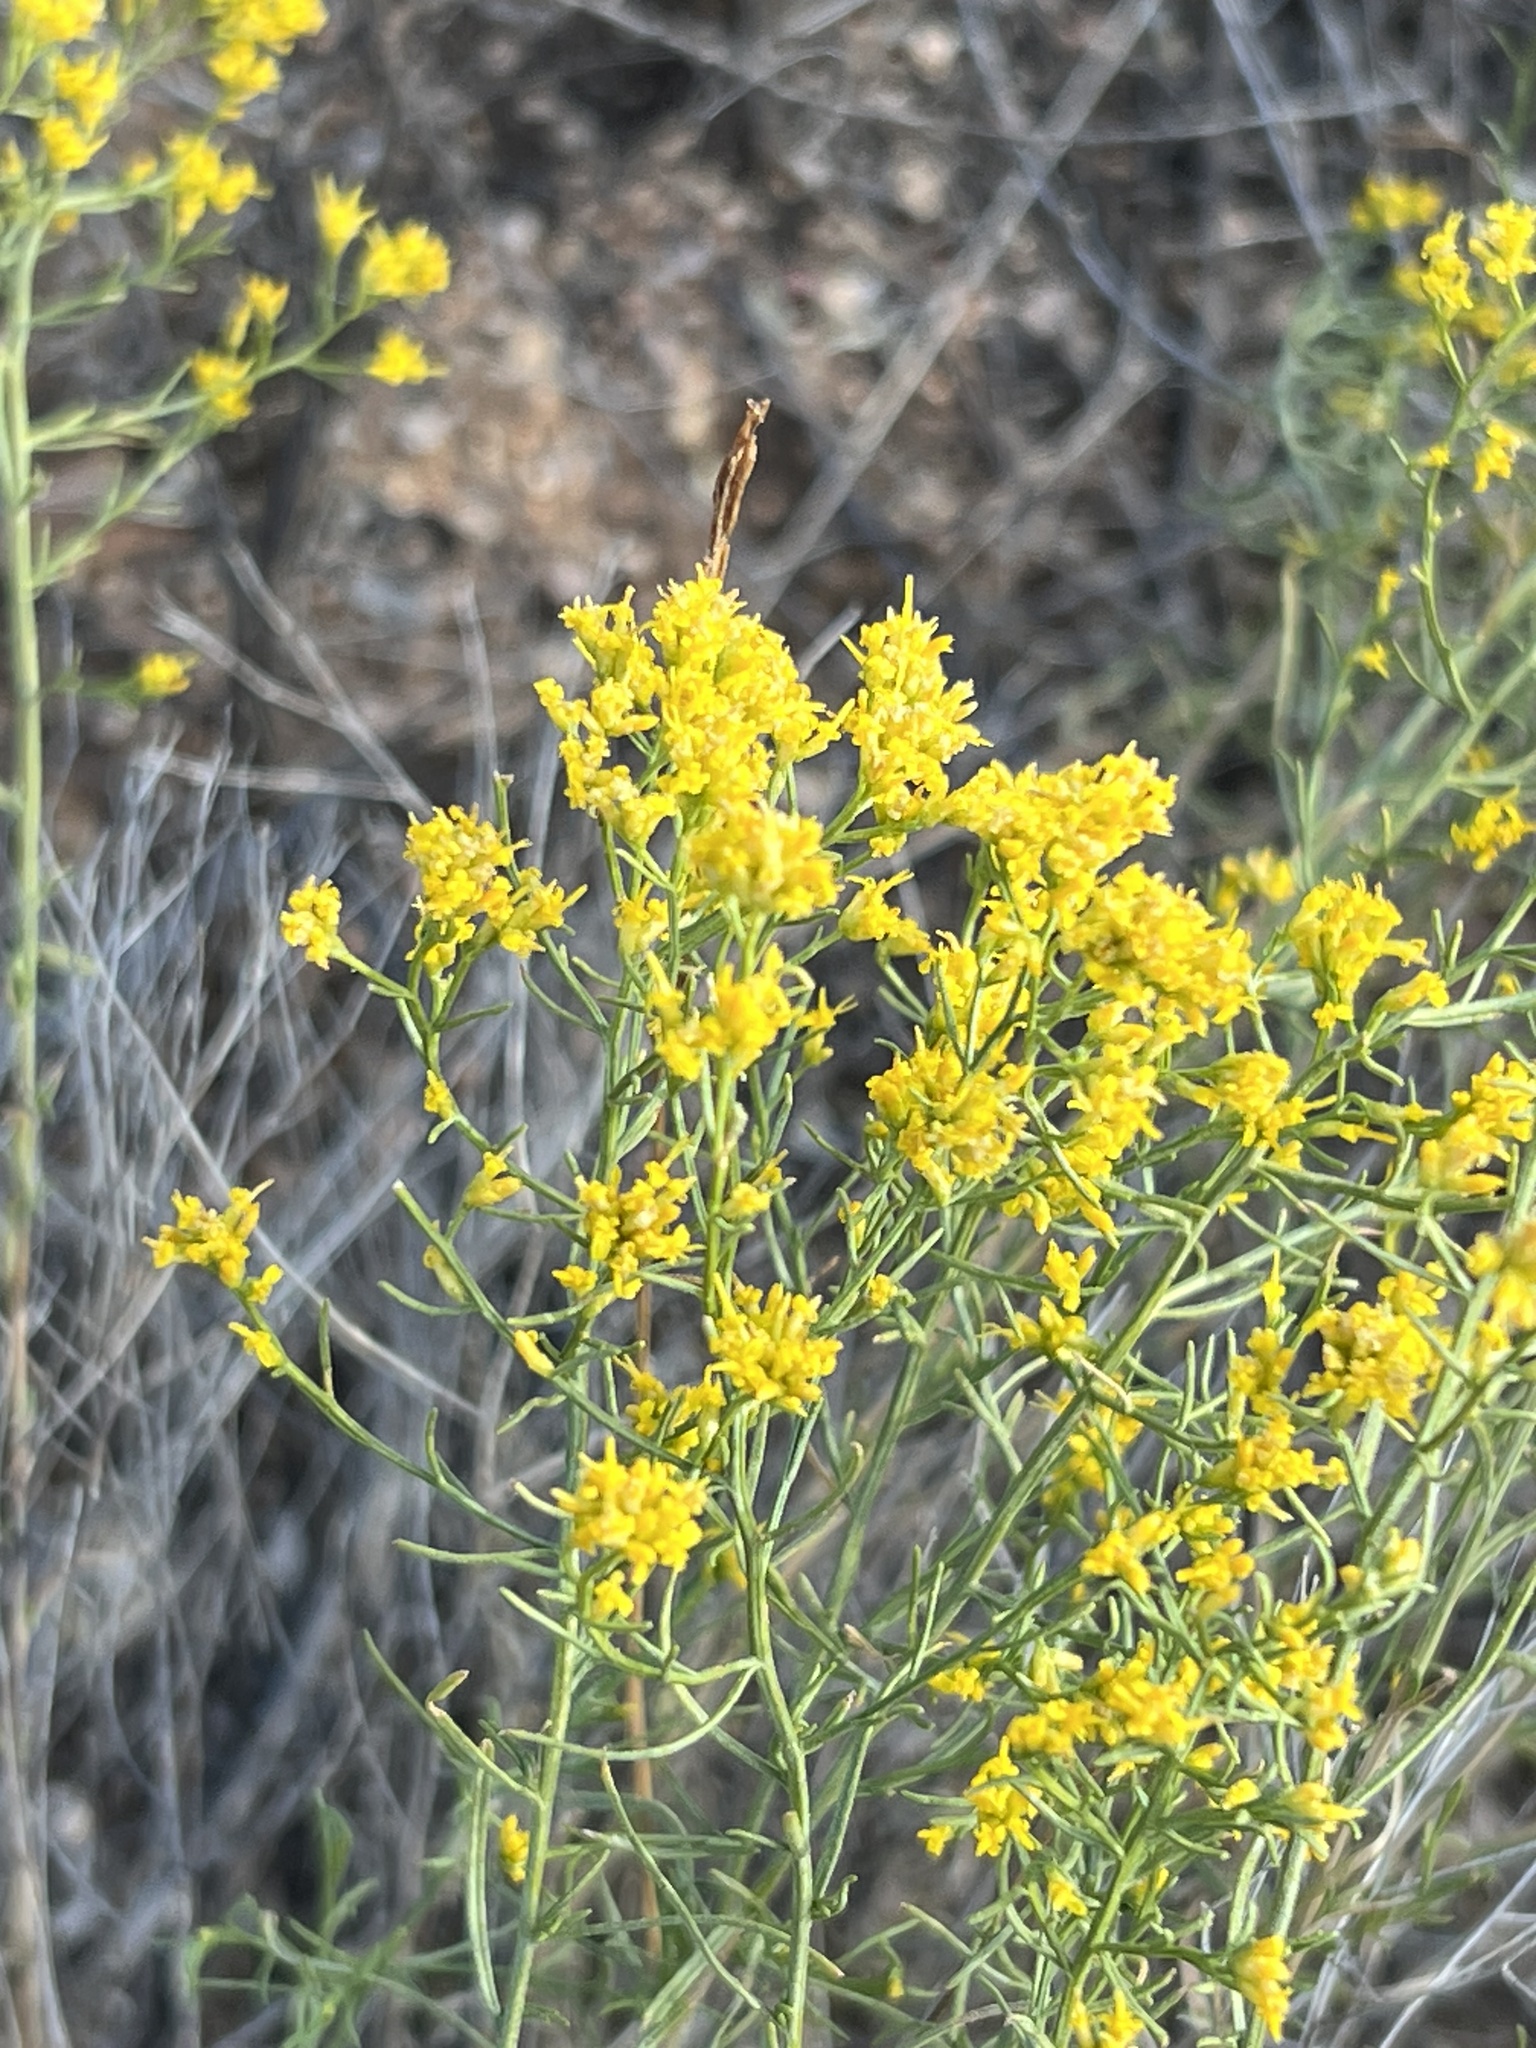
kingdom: Plantae
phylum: Tracheophyta
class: Magnoliopsida
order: Asterales
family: Asteraceae
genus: Gutierrezia
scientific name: Gutierrezia sarothrae
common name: Broom snakeweed
